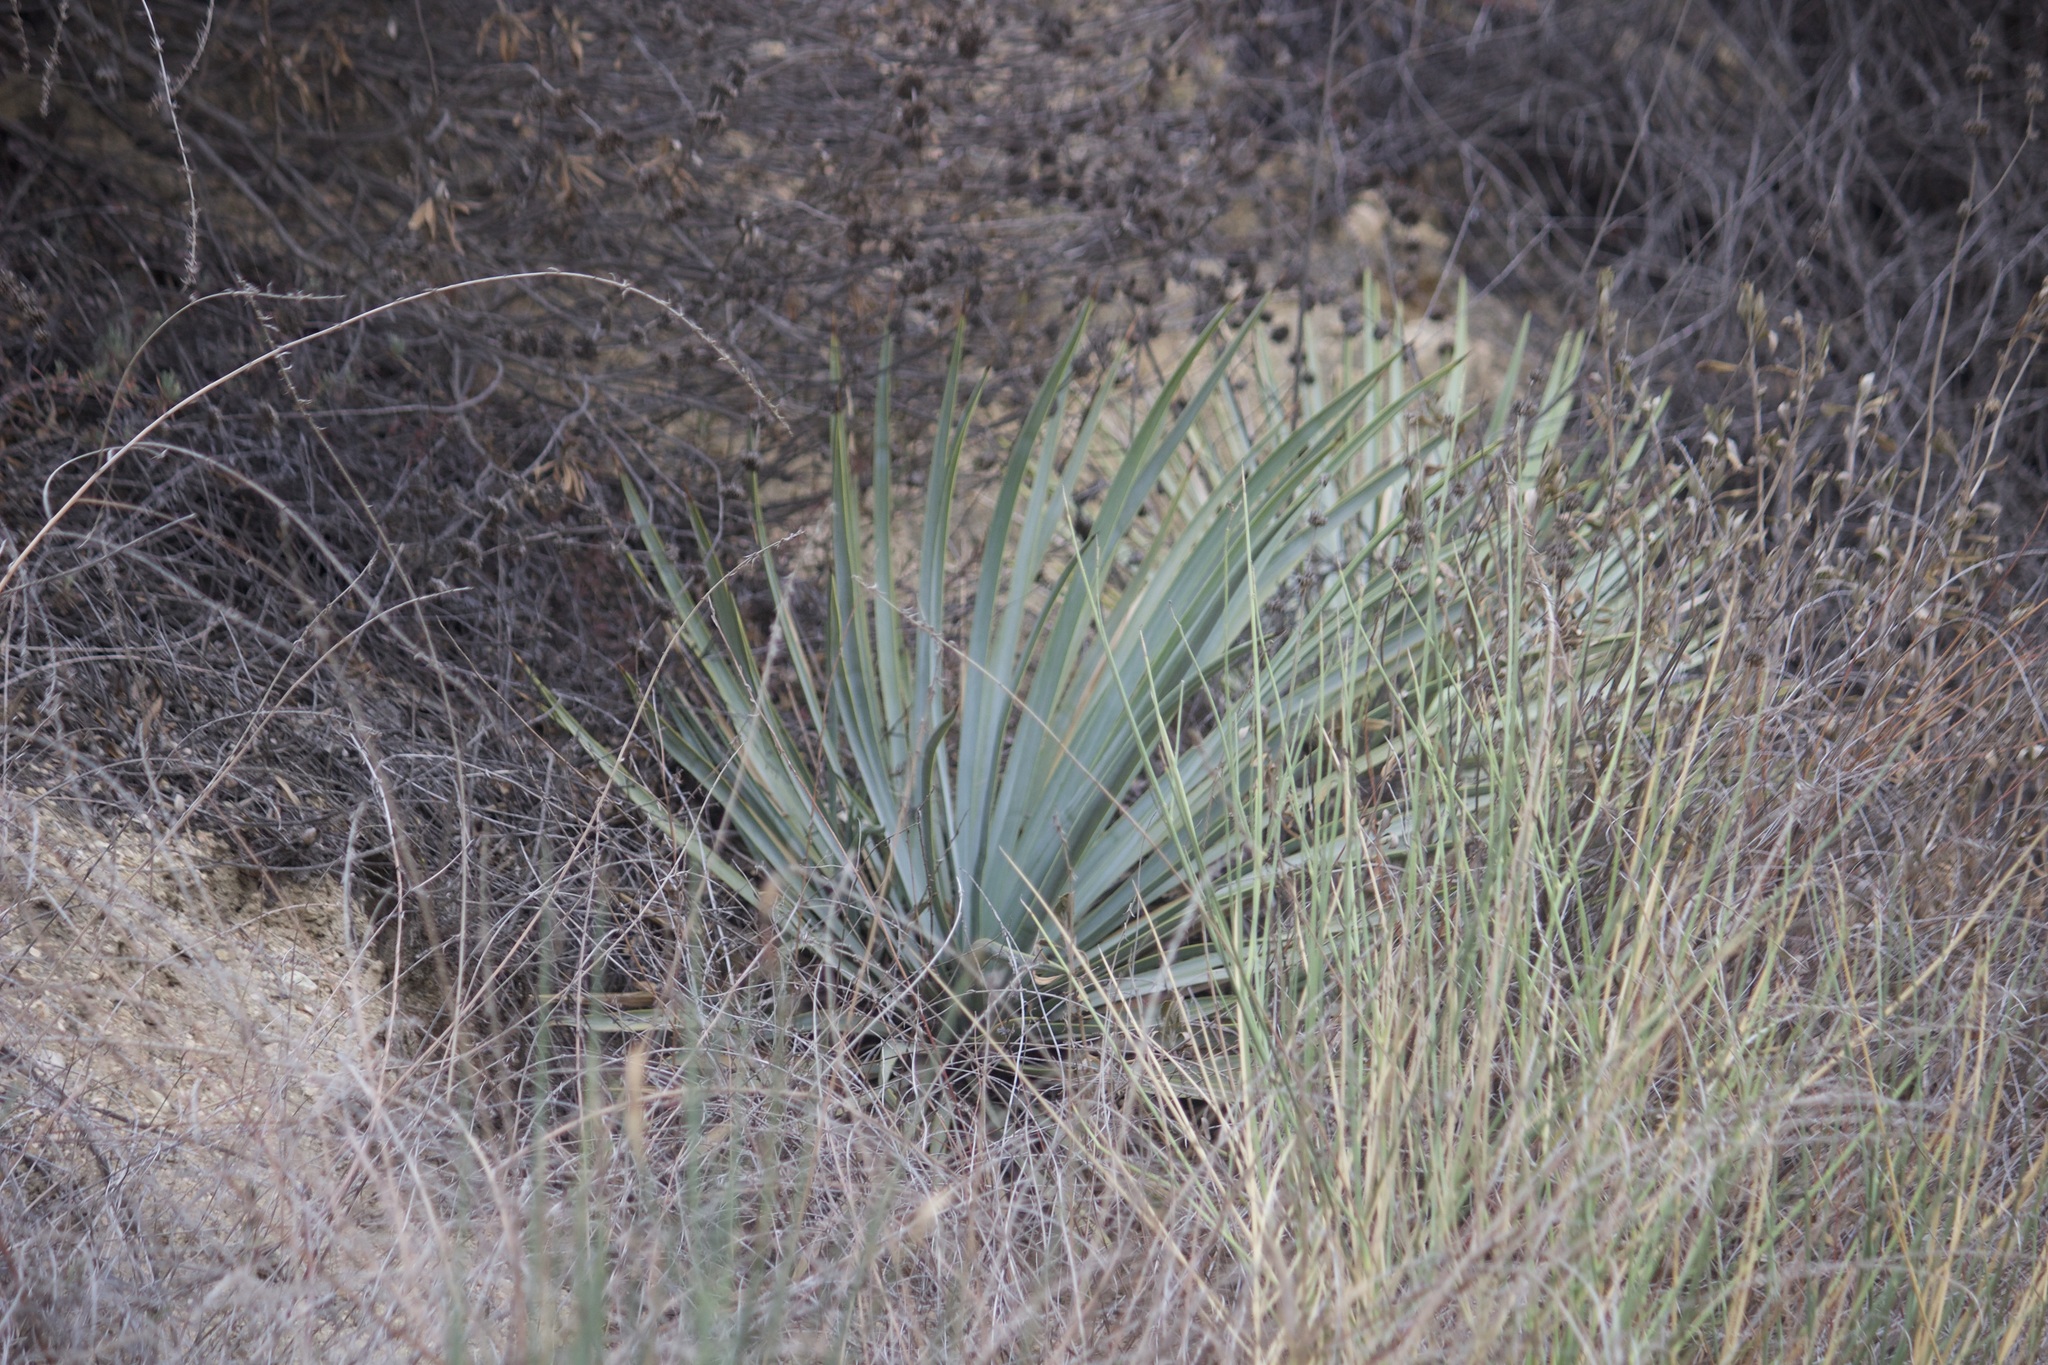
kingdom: Plantae
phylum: Tracheophyta
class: Liliopsida
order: Asparagales
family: Asparagaceae
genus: Hesperoyucca
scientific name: Hesperoyucca whipplei
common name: Our lord's-candle
